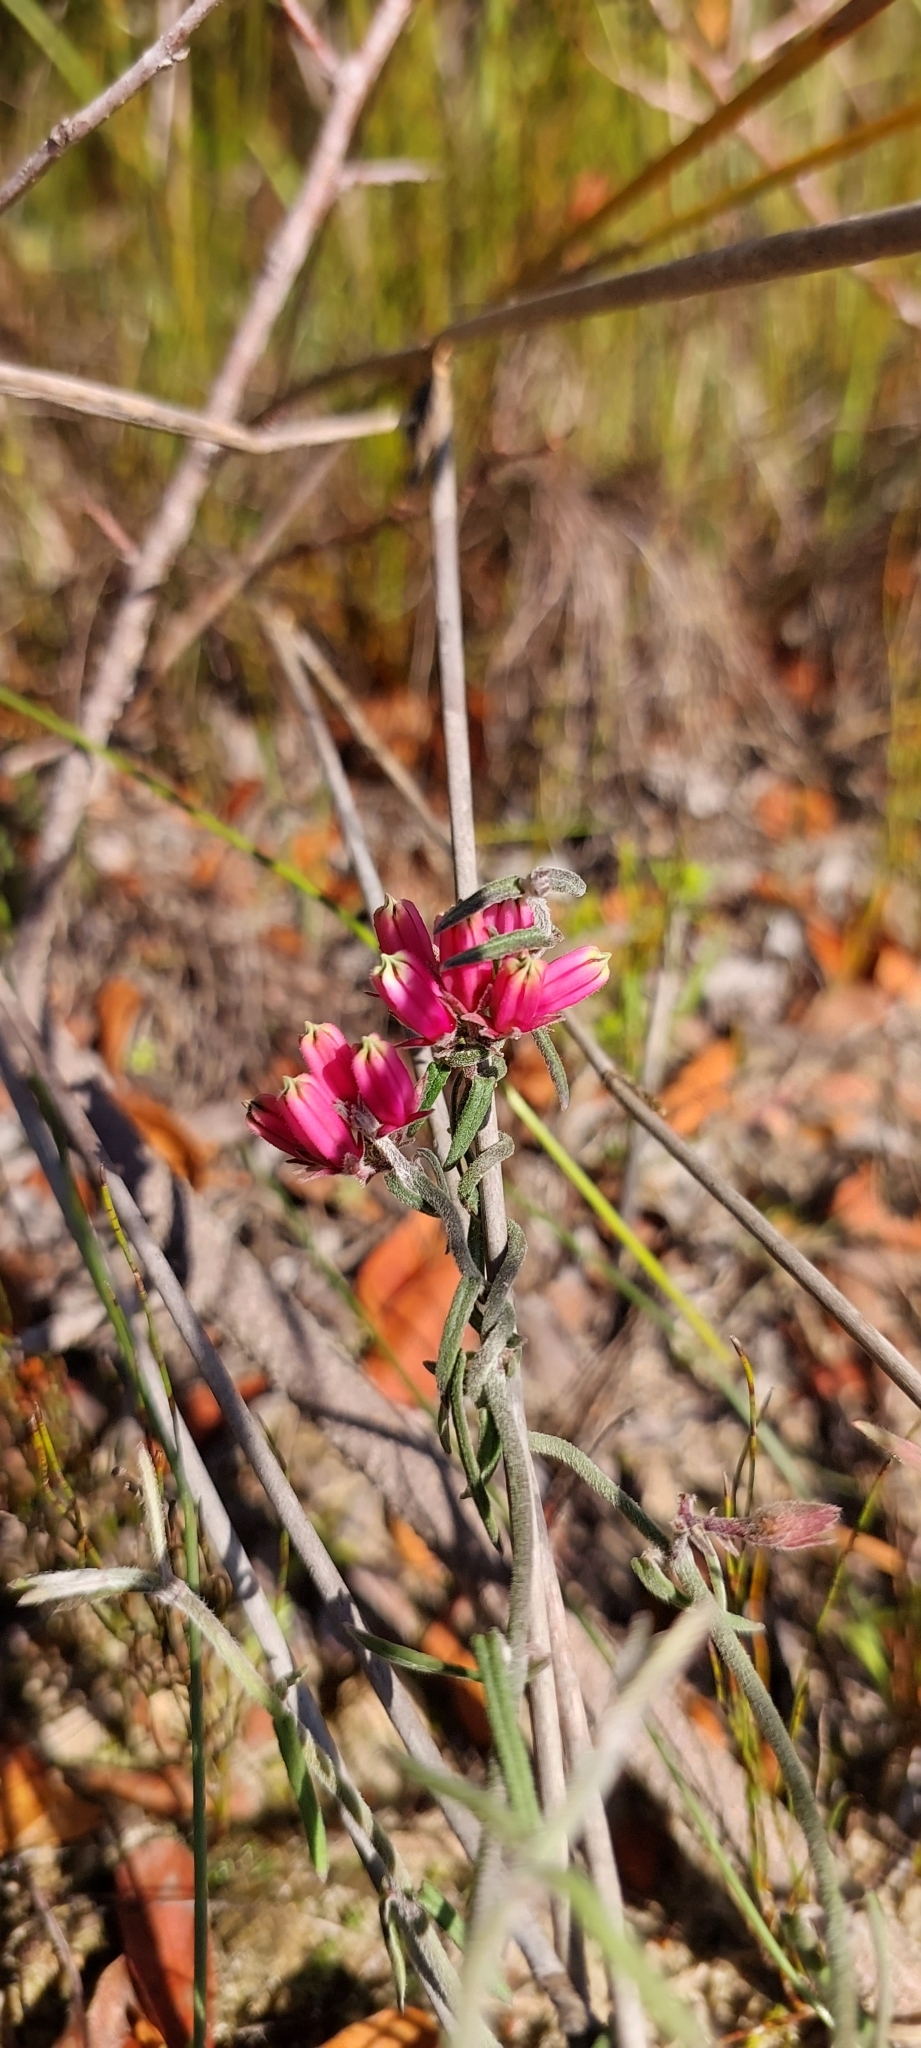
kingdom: Plantae
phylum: Tracheophyta
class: Magnoliopsida
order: Gentianales
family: Apocynaceae
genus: Microloma
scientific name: Microloma sagittatum
